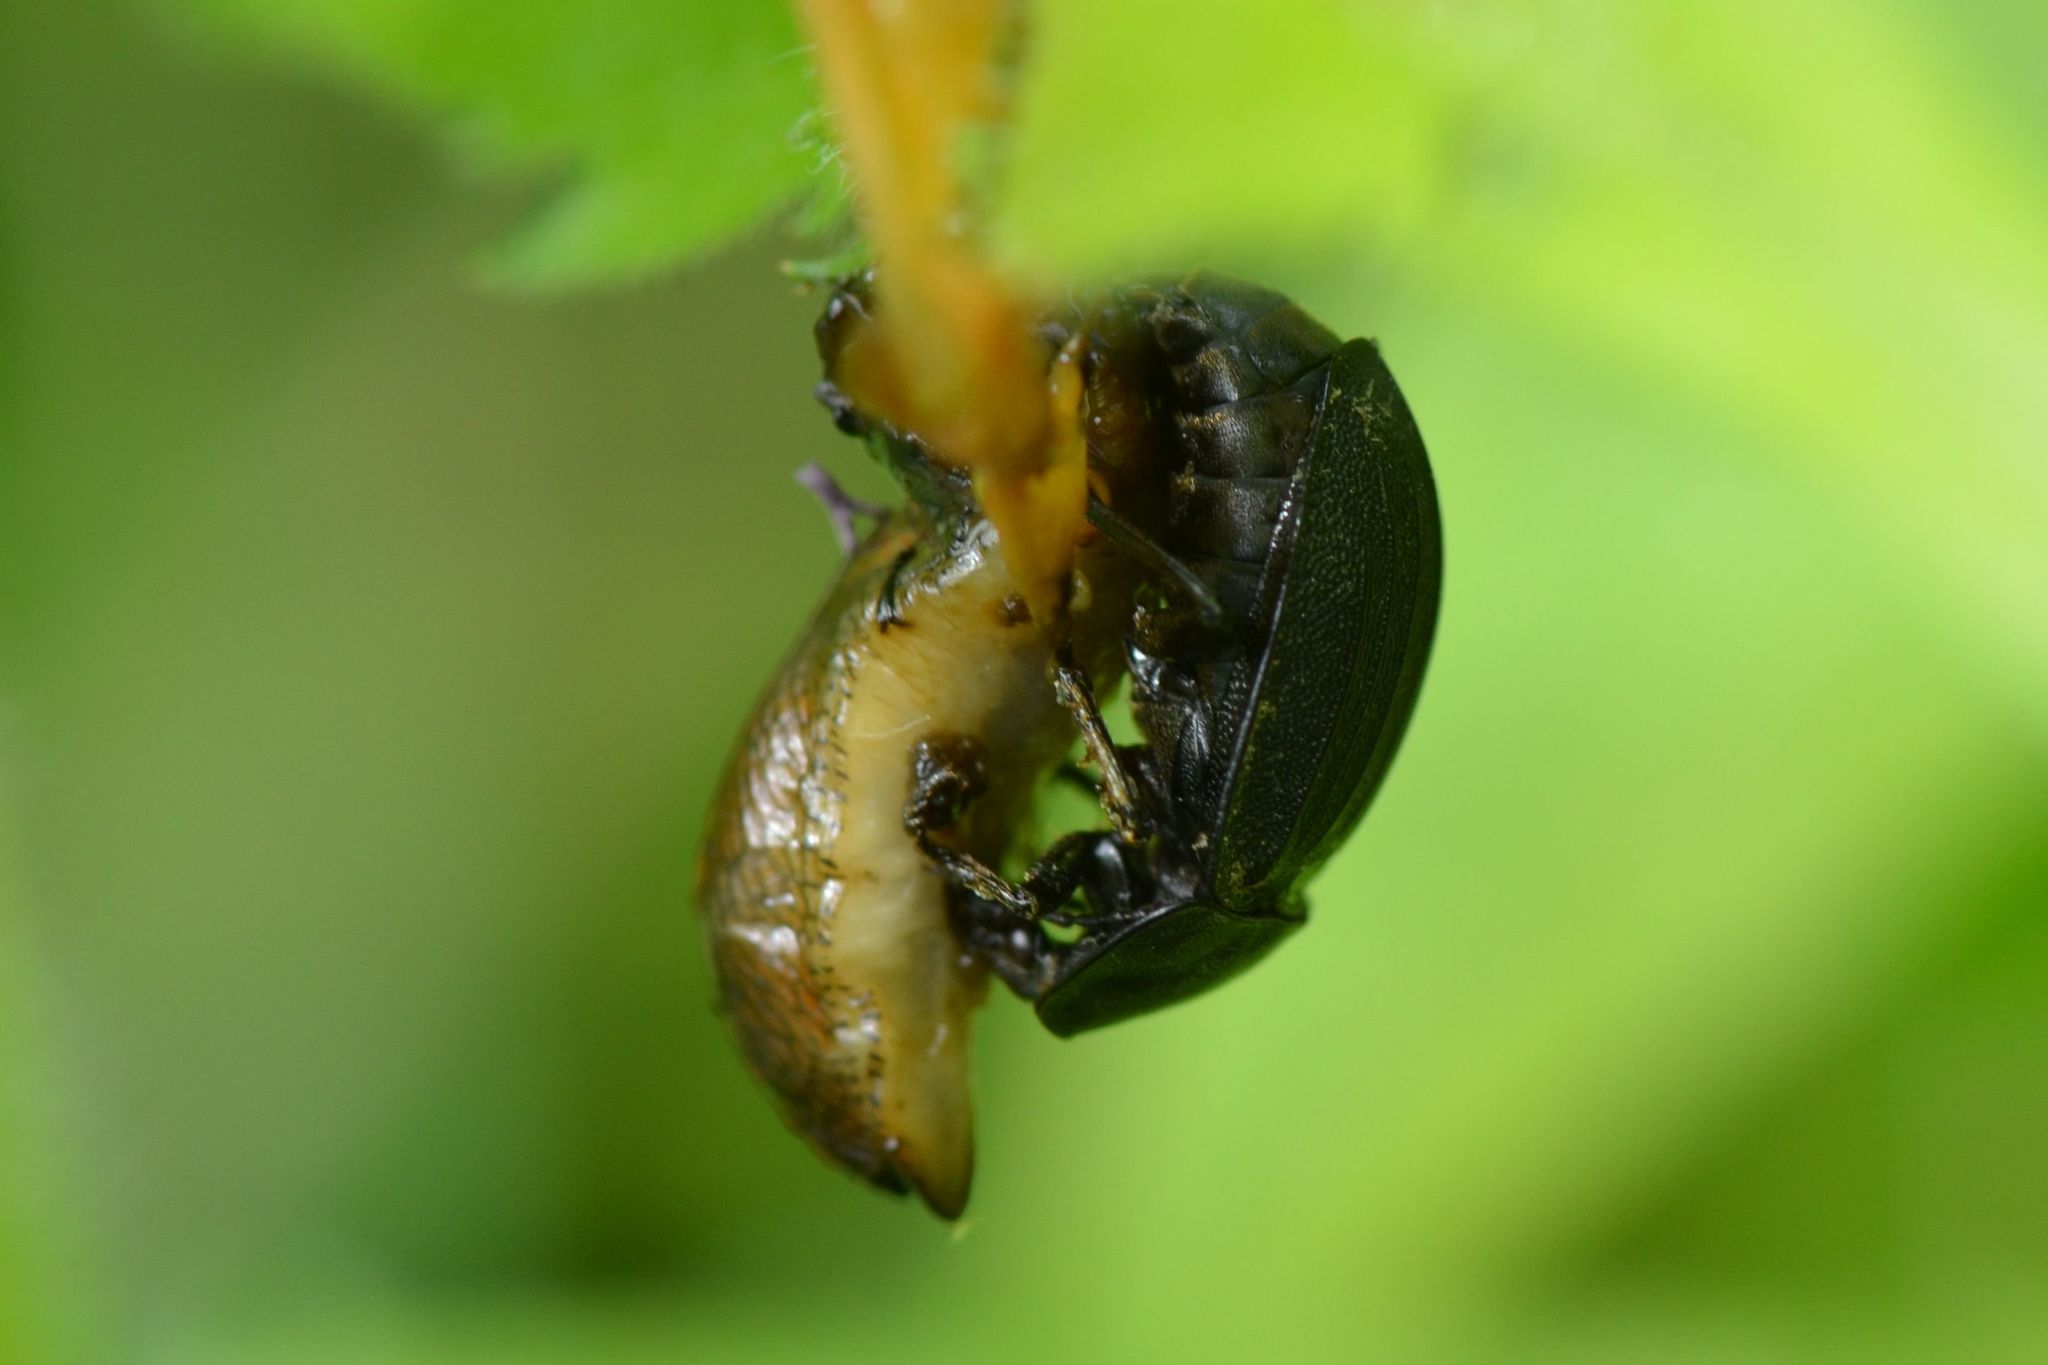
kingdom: Animalia
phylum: Arthropoda
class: Insecta
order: Coleoptera
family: Staphylinidae
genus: Silpha
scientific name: Silpha atrata
